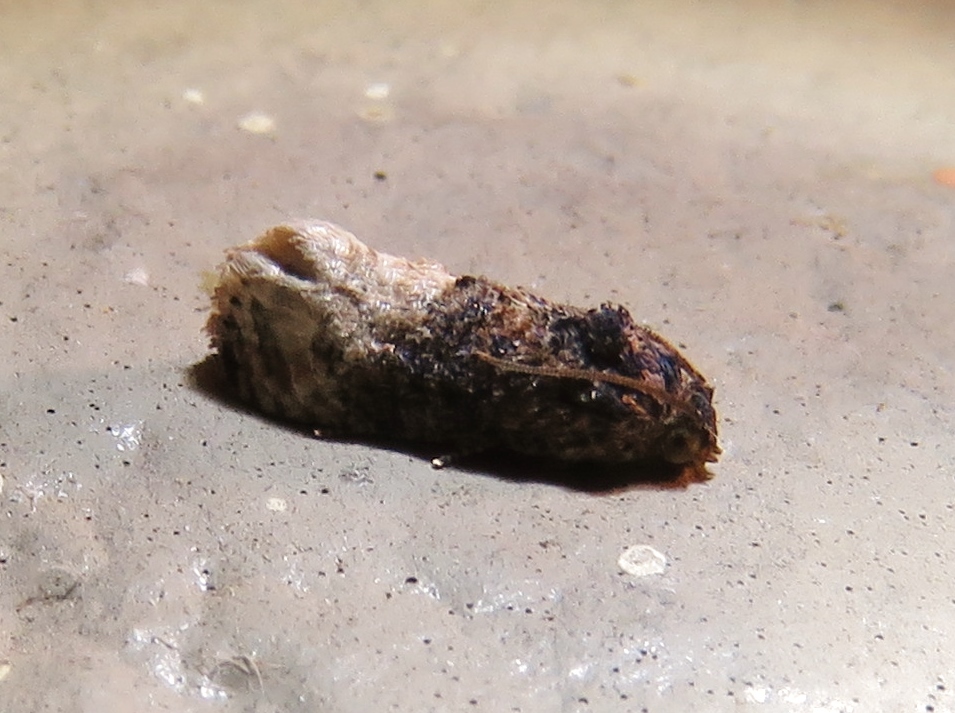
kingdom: Animalia
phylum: Arthropoda
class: Insecta
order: Lepidoptera
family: Tortricidae
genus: Ecdytolopha
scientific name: Ecdytolopha mana
